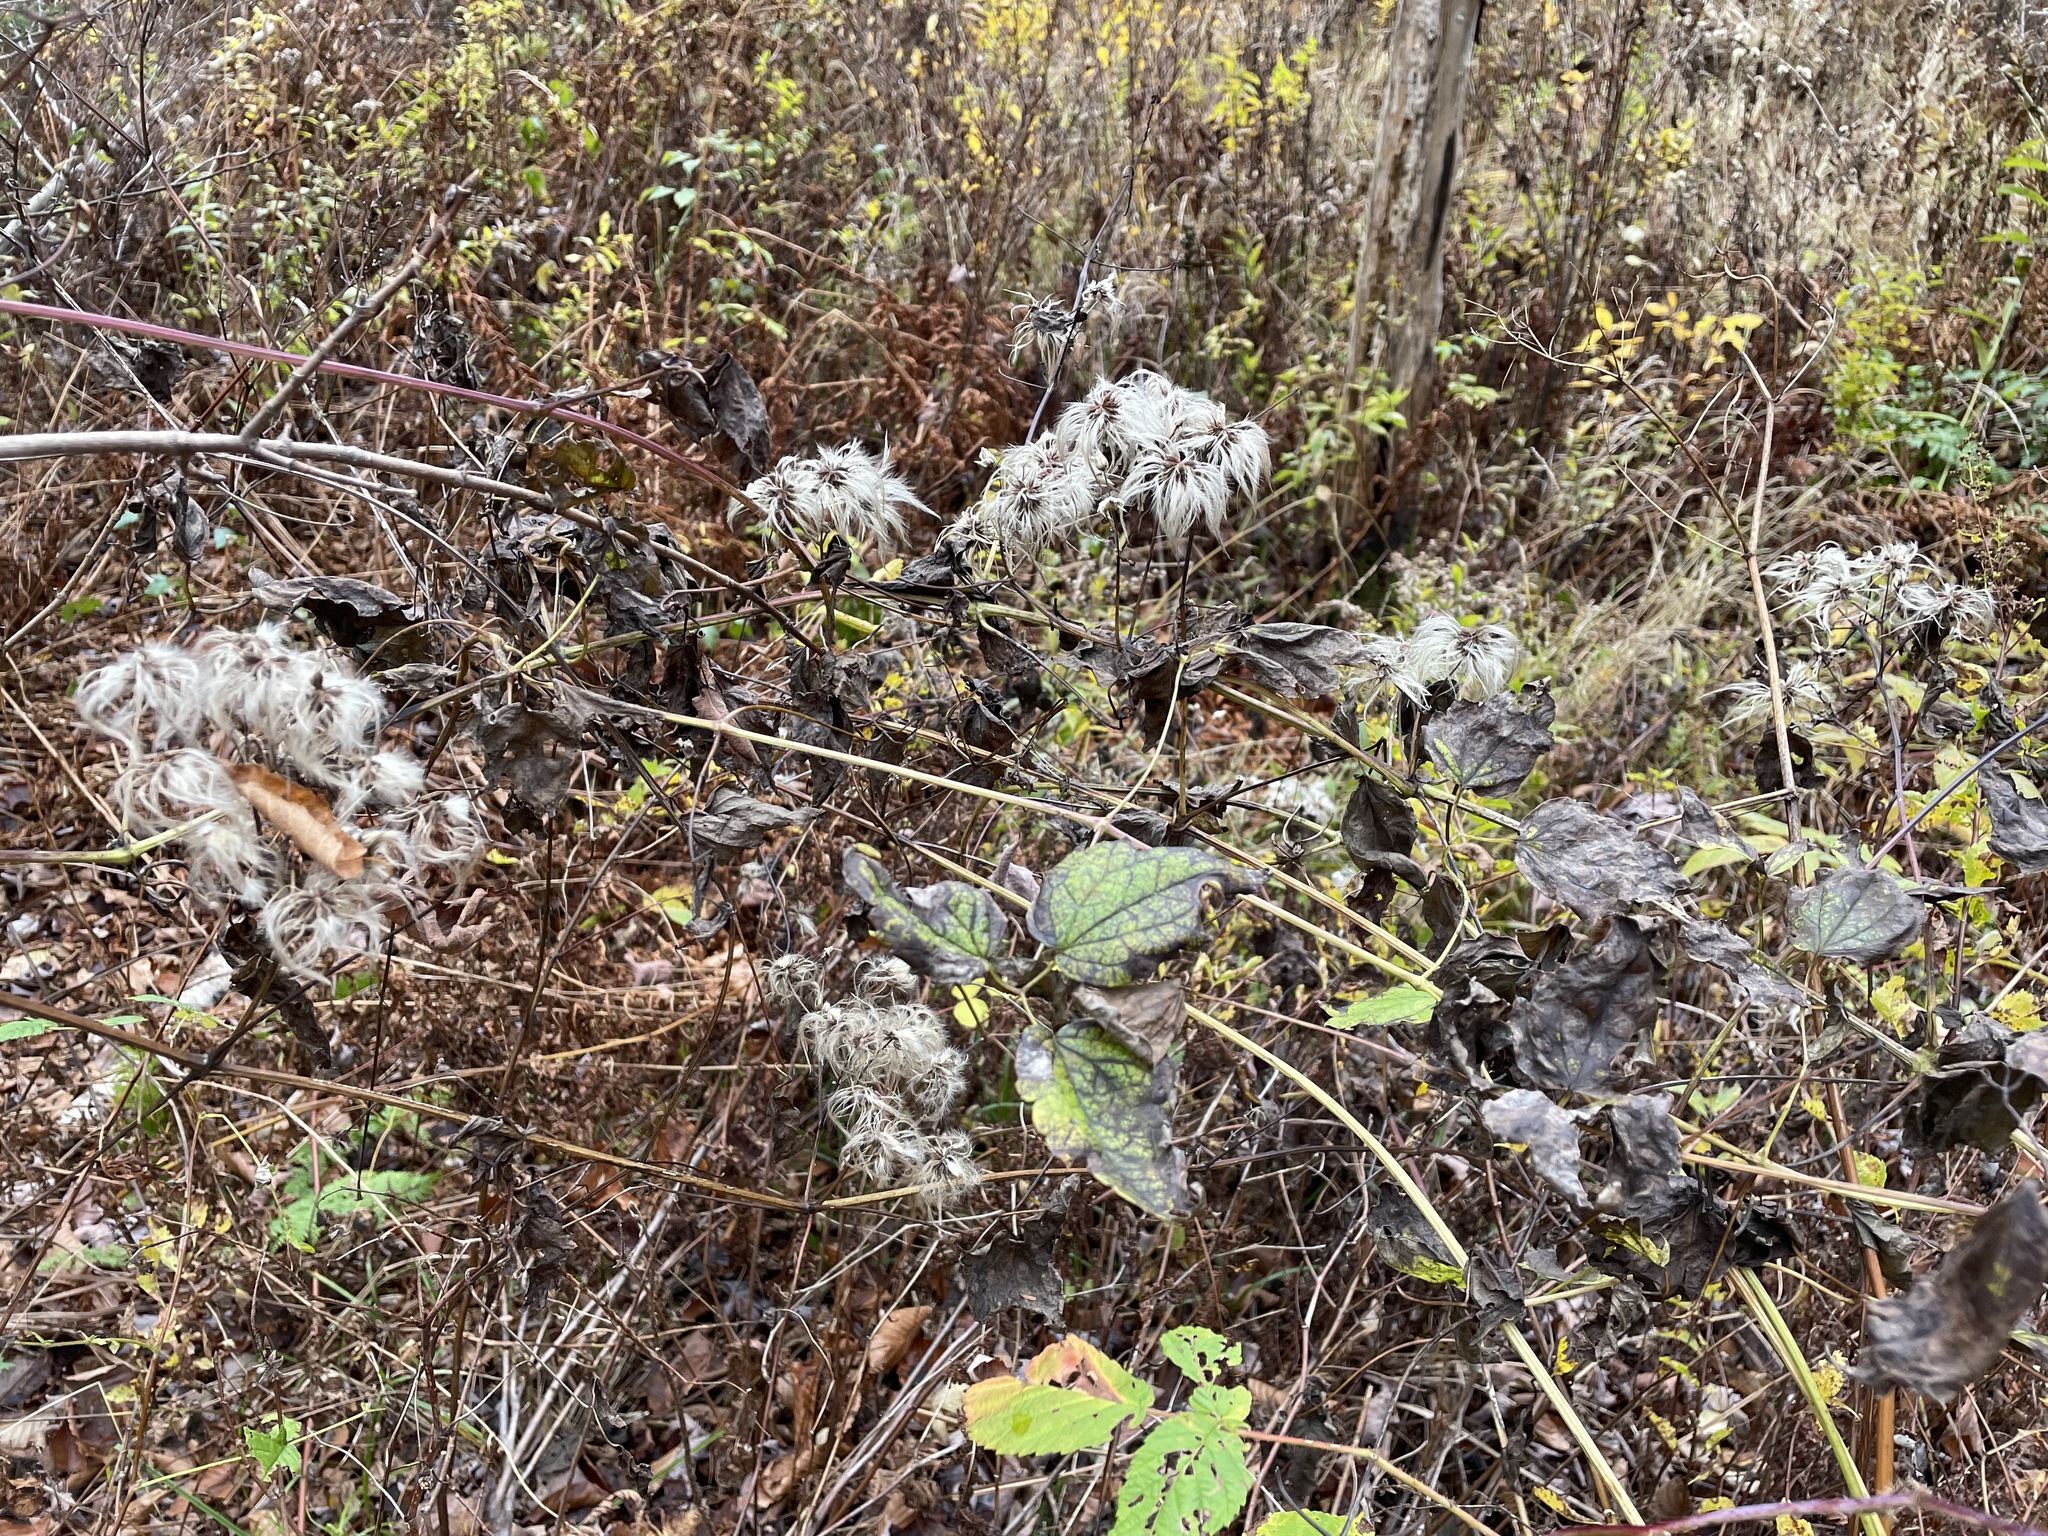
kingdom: Plantae
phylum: Tracheophyta
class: Magnoliopsida
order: Ranunculales
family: Ranunculaceae
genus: Clematis
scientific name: Clematis virginiana
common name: Virgin's-bower
